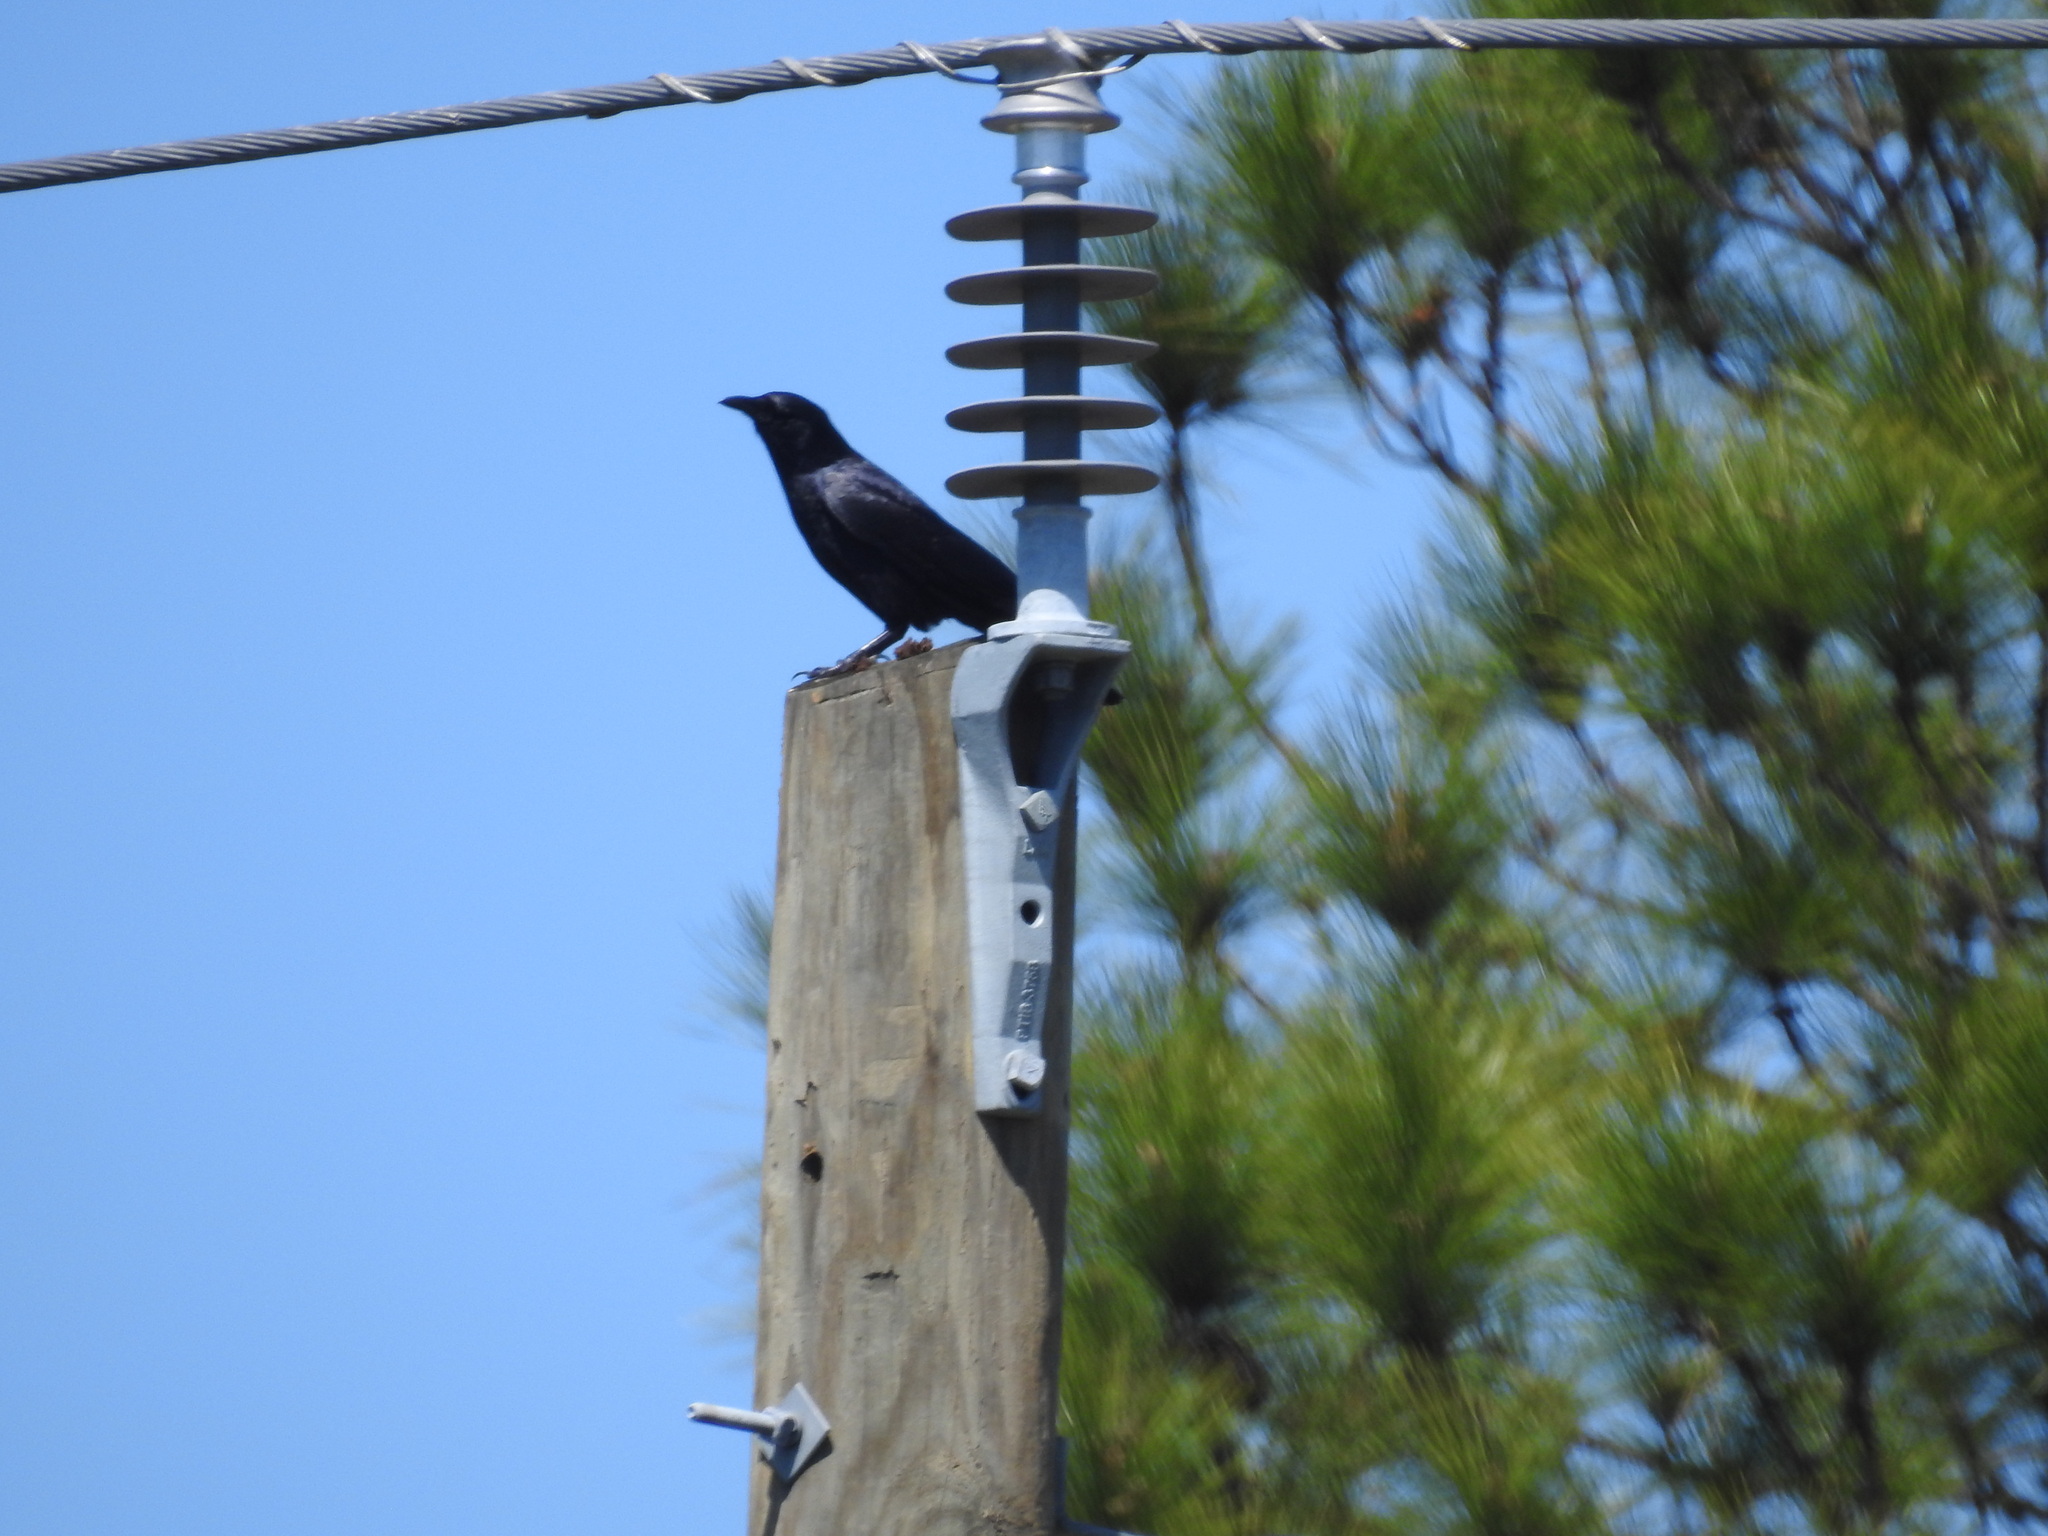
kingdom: Animalia
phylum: Chordata
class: Aves
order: Passeriformes
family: Corvidae
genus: Corvus
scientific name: Corvus ossifragus
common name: Fish crow
